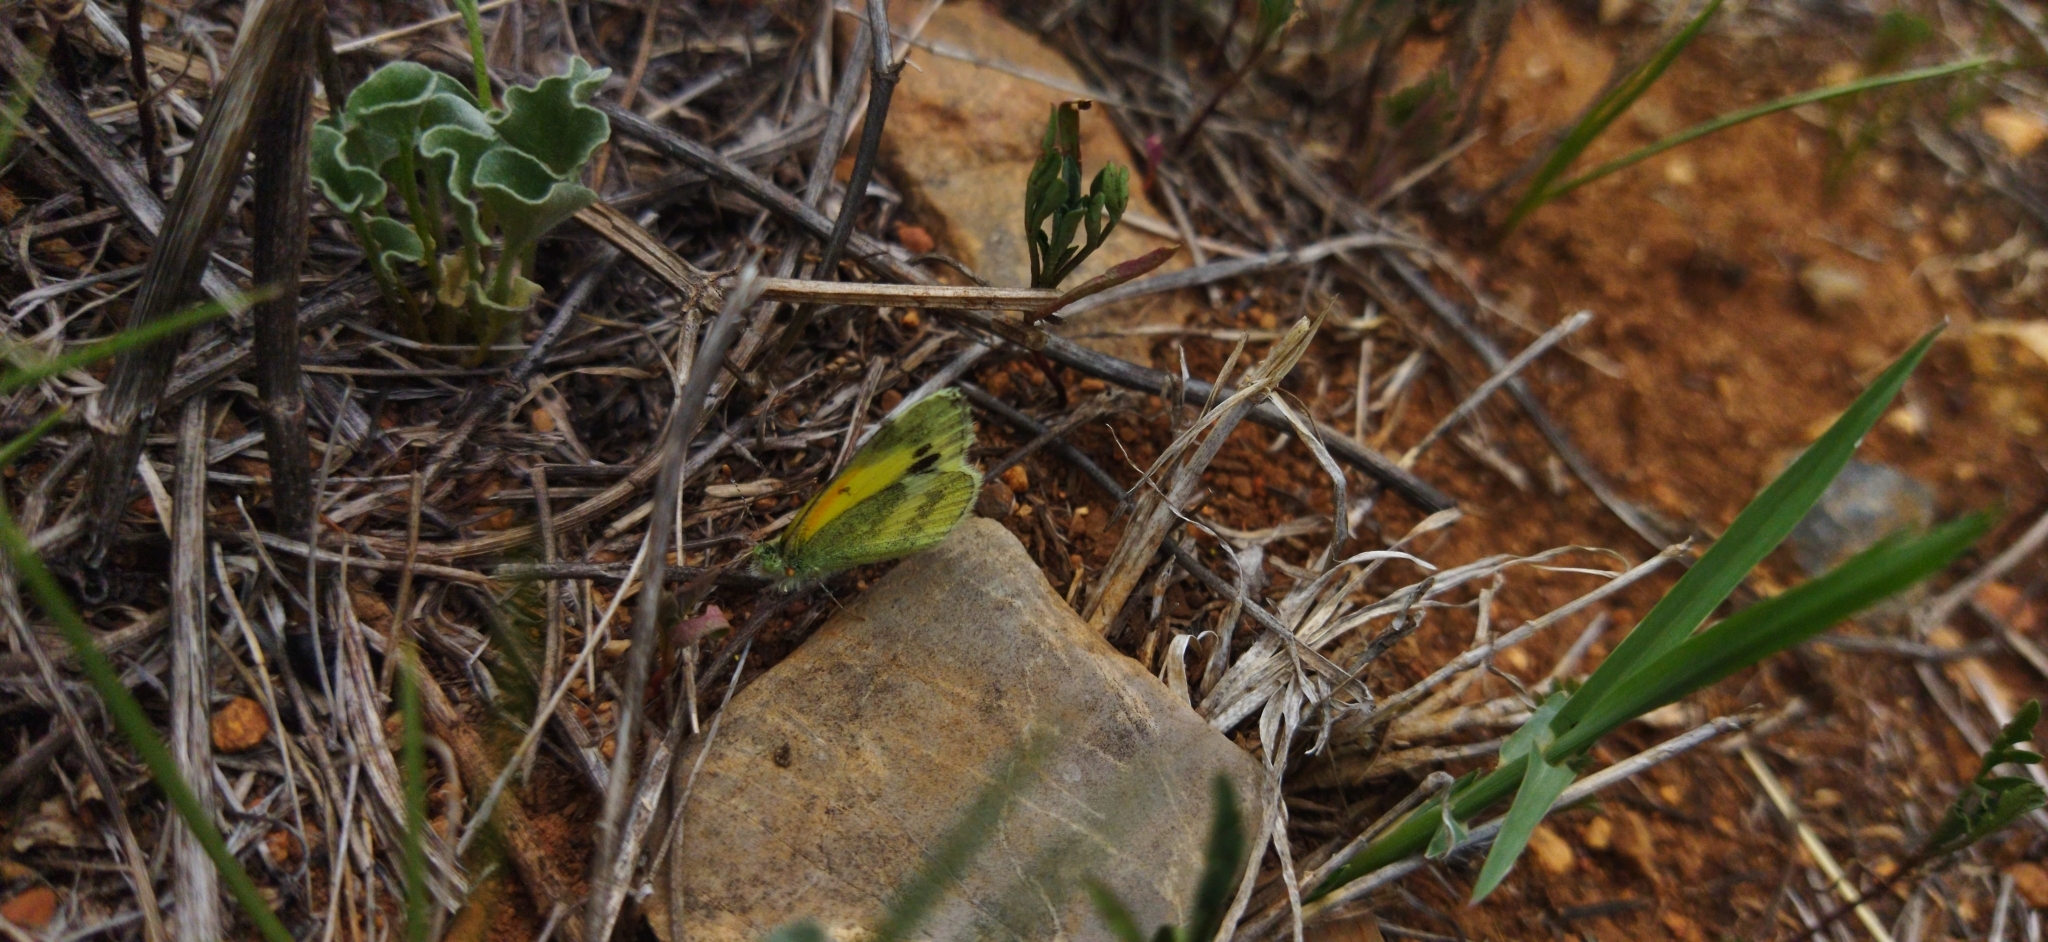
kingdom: Animalia
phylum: Arthropoda
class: Insecta
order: Lepidoptera
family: Pieridae
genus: Nathalis
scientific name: Nathalis iole
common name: Dainty sulphur
